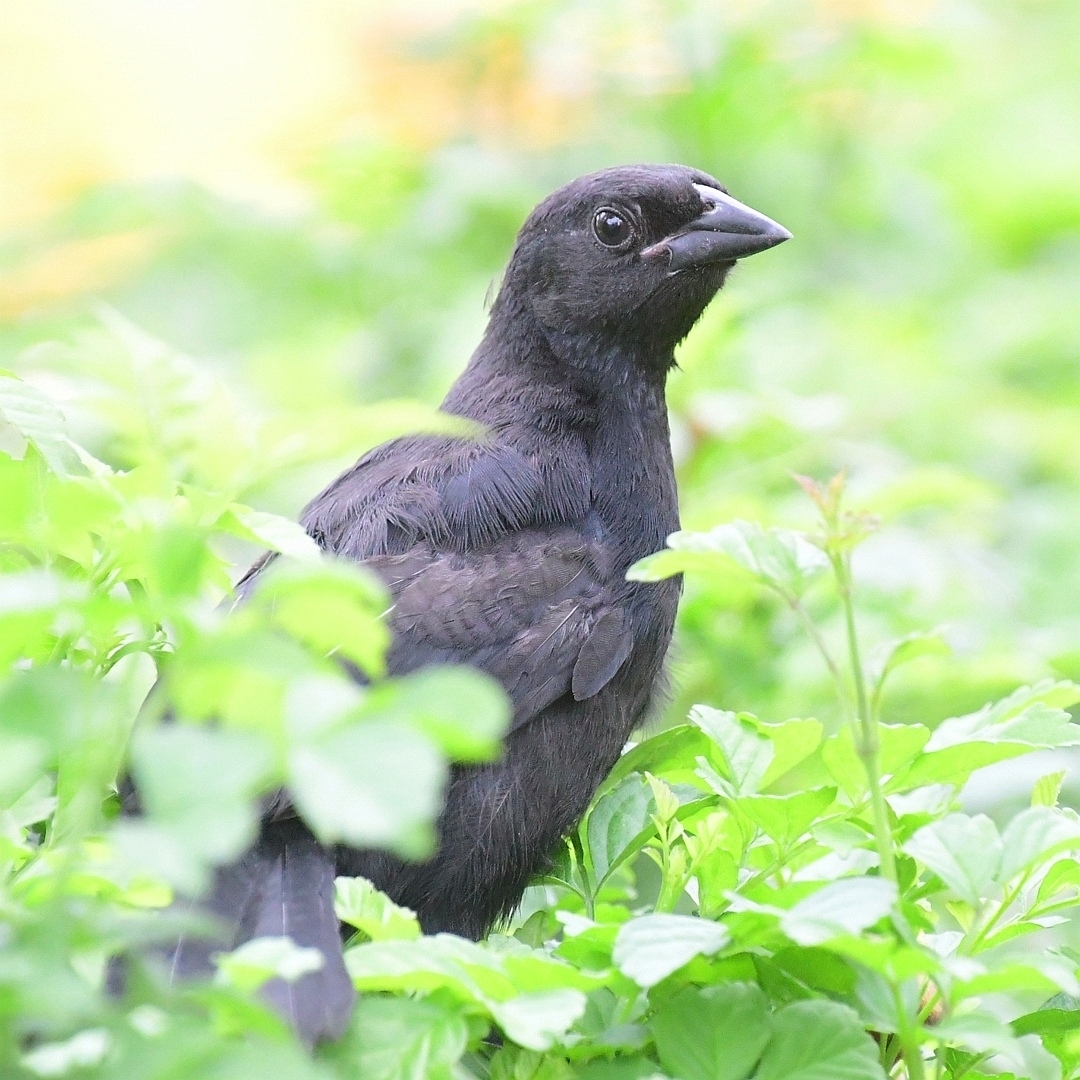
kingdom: Animalia
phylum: Chordata
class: Aves
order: Passeriformes
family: Icteridae
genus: Dives
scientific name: Dives warczewiczi
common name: Scrub blackbird
